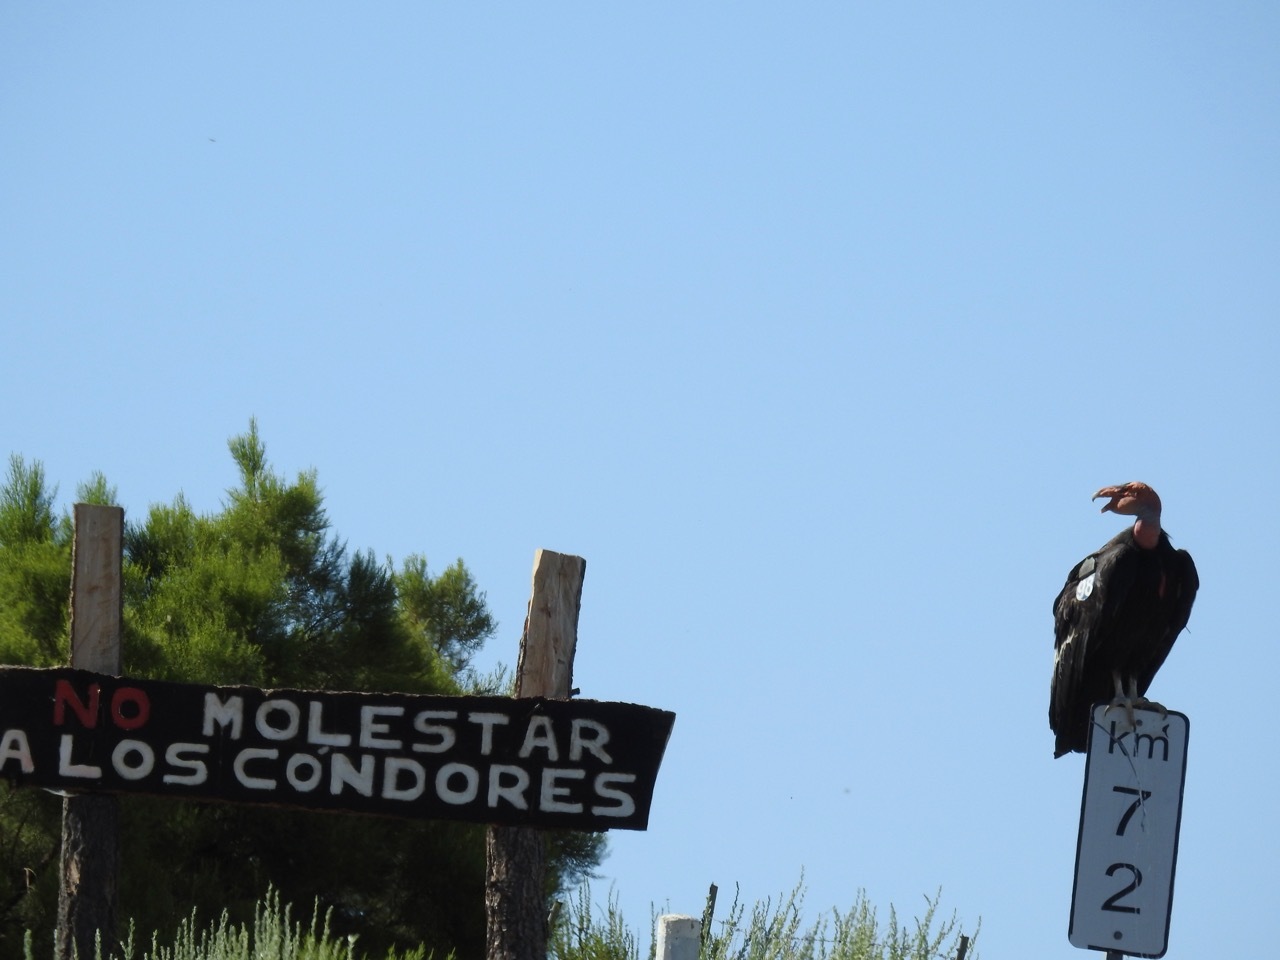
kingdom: Animalia
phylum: Chordata
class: Aves
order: Accipitriformes
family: Cathartidae
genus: Gymnogyps
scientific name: Gymnogyps californianus
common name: California condor
